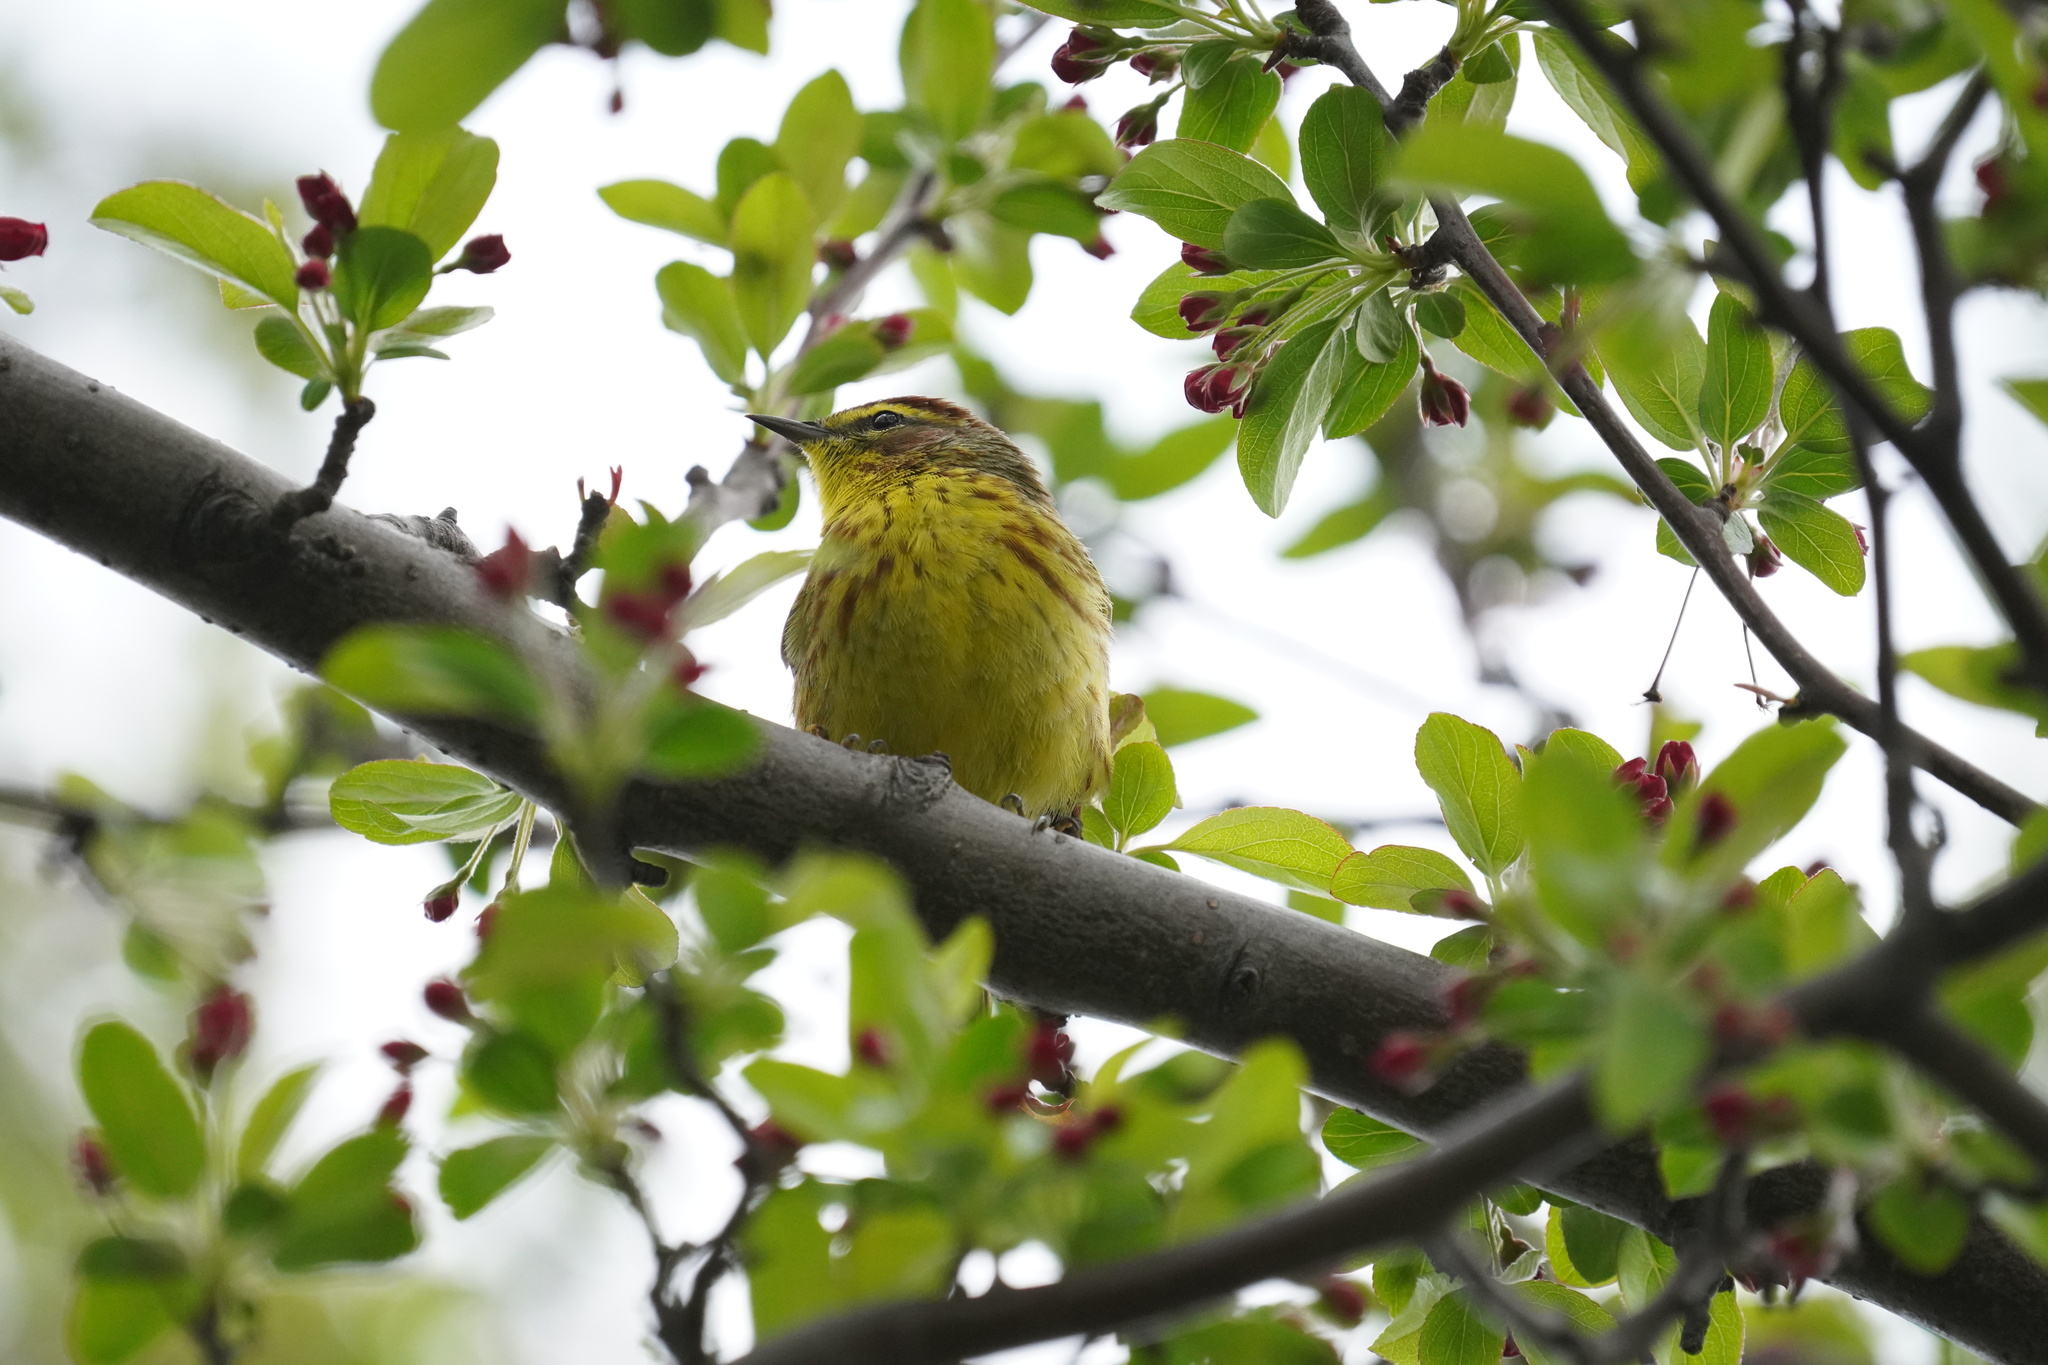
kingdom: Animalia
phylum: Chordata
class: Aves
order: Passeriformes
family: Parulidae
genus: Setophaga
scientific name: Setophaga palmarum
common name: Palm warbler
